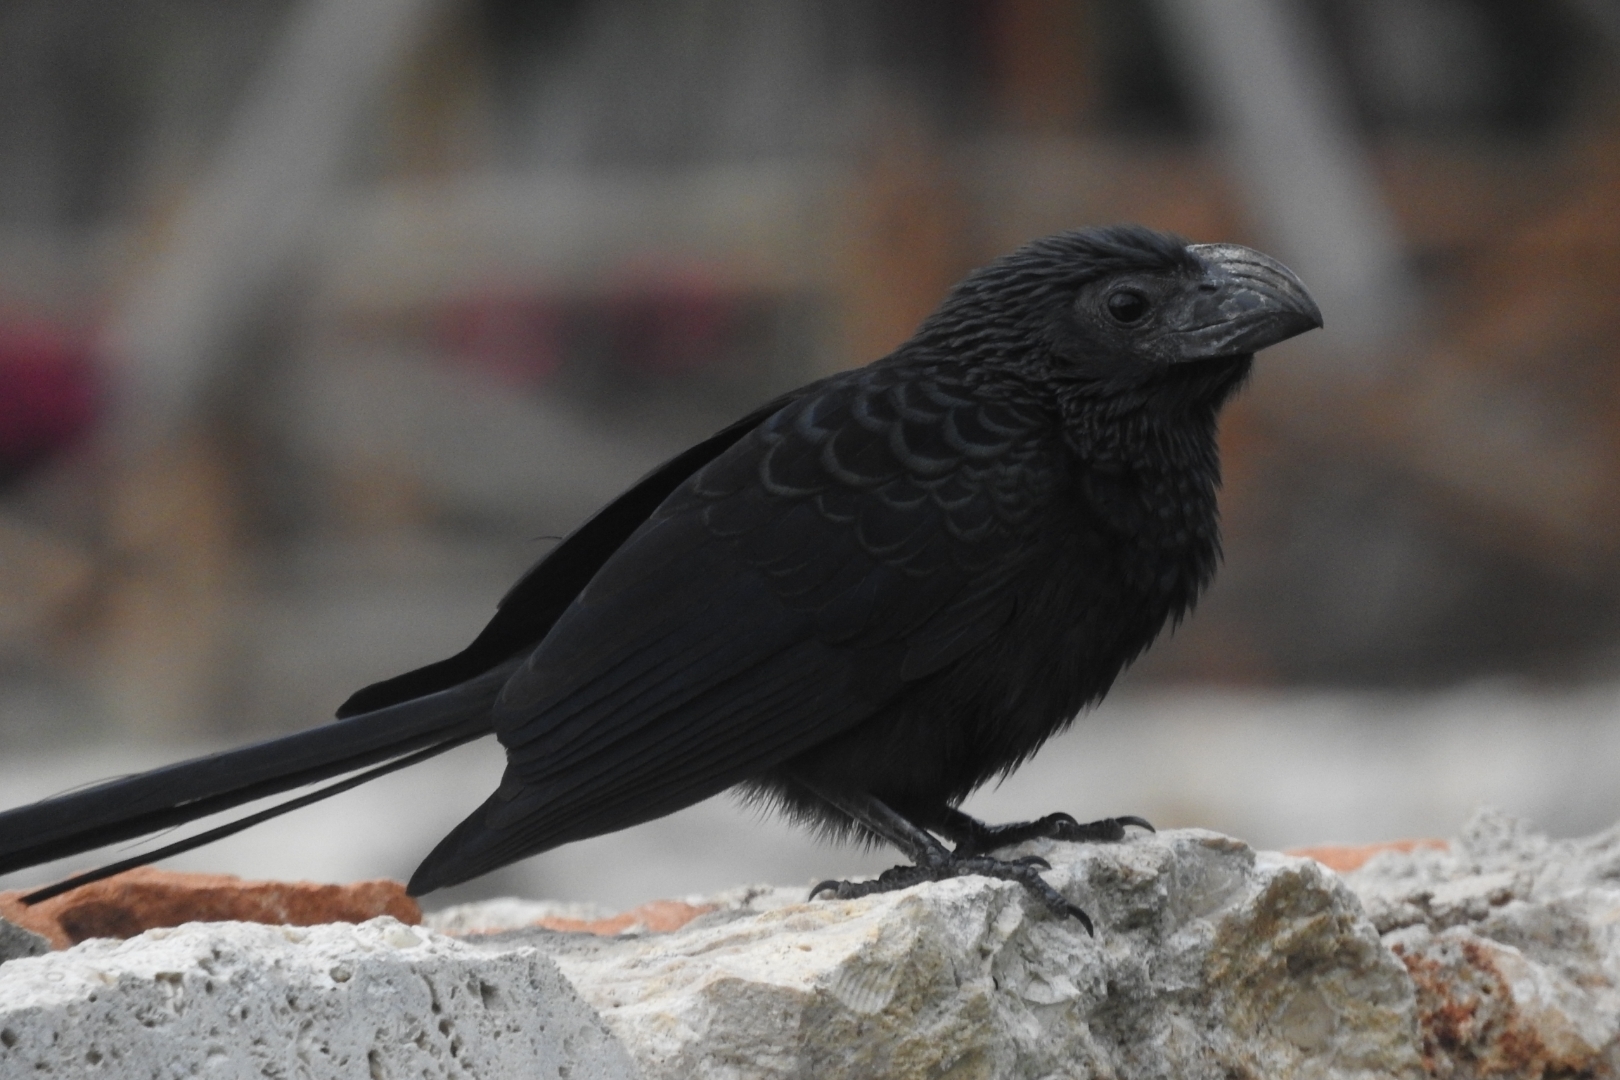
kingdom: Animalia
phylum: Chordata
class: Aves
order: Cuculiformes
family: Cuculidae
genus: Crotophaga
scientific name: Crotophaga sulcirostris
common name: Groove-billed ani
